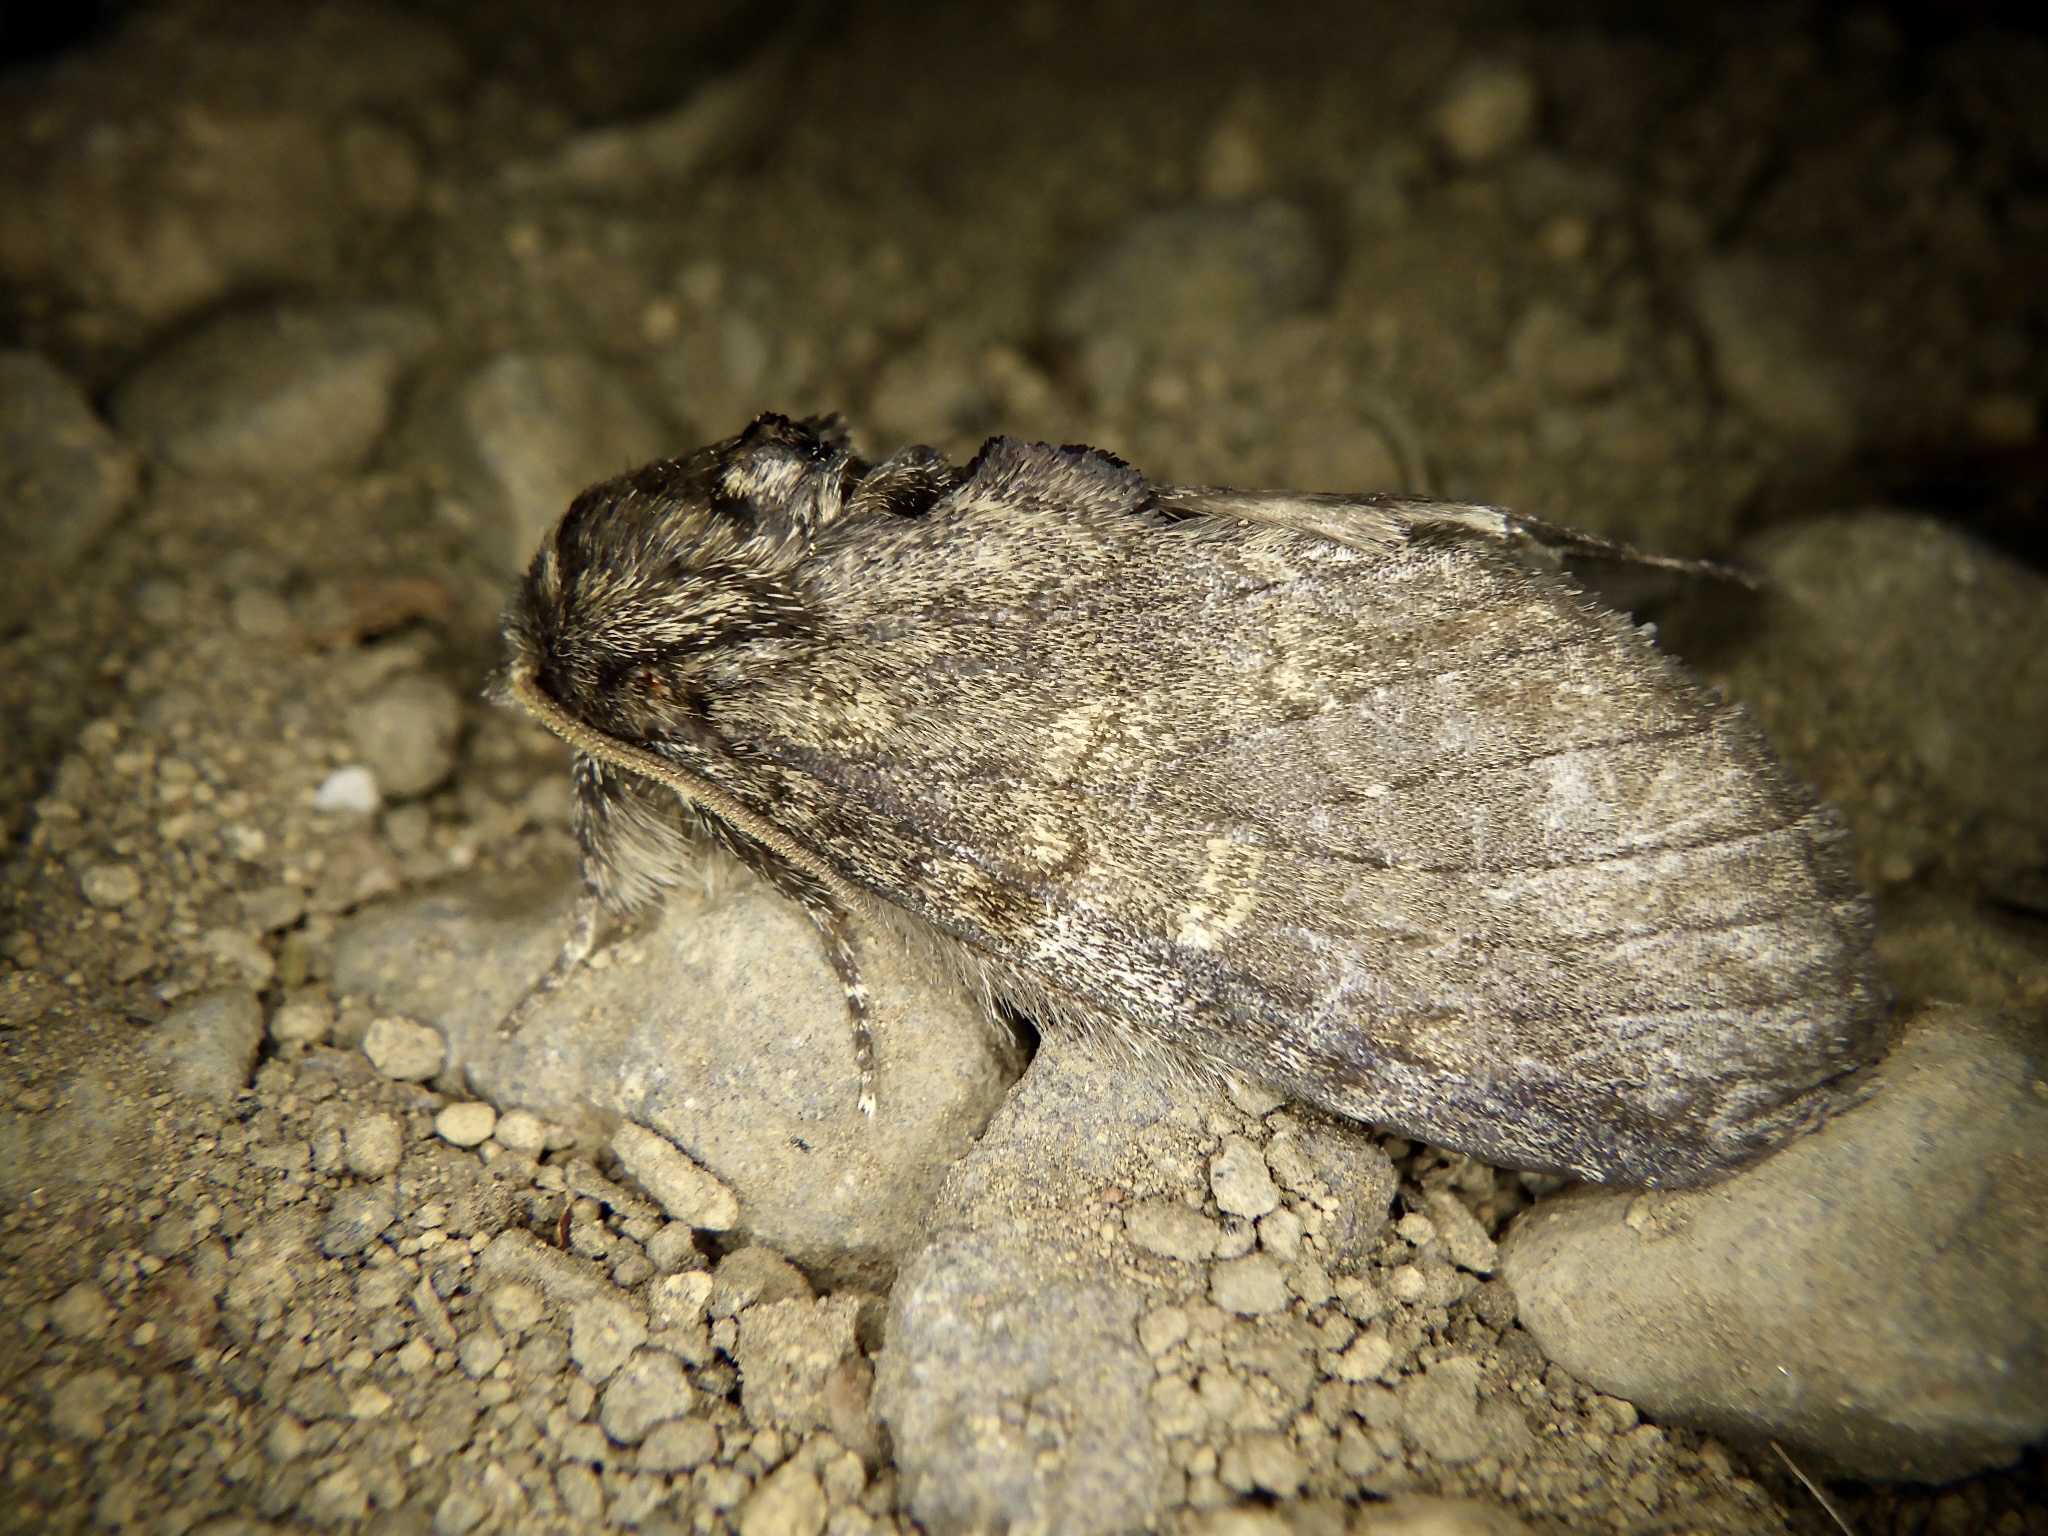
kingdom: Animalia
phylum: Arthropoda
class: Insecta
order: Lepidoptera
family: Notodontidae
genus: Peridea
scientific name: Peridea gigantea
